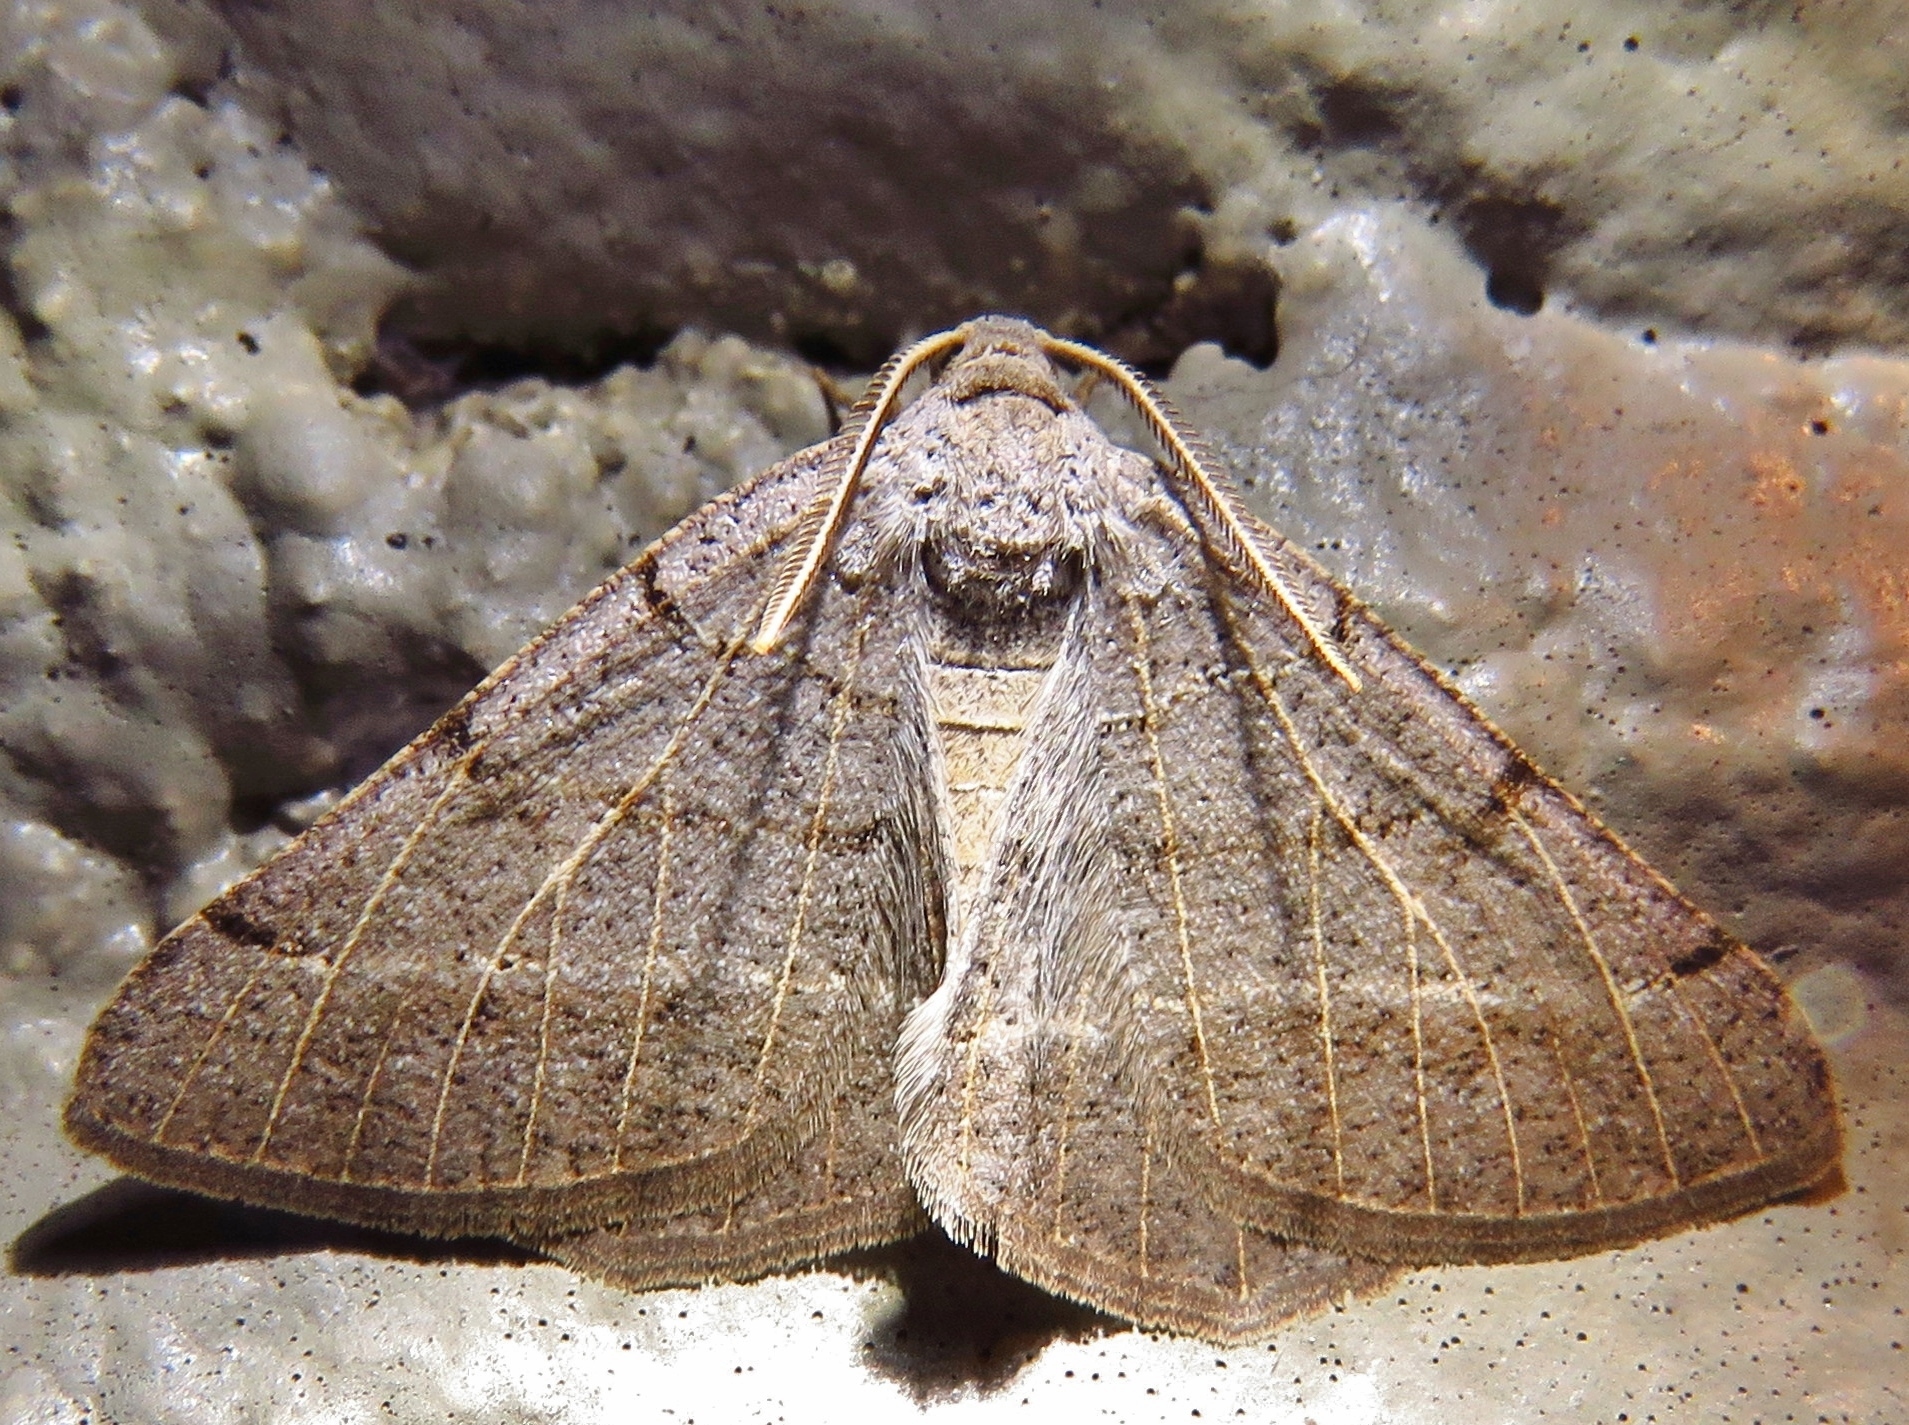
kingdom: Animalia
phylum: Arthropoda
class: Insecta
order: Lepidoptera
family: Geometridae
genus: Isturgia
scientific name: Isturgia dislocaria
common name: Pale-viened enconista
